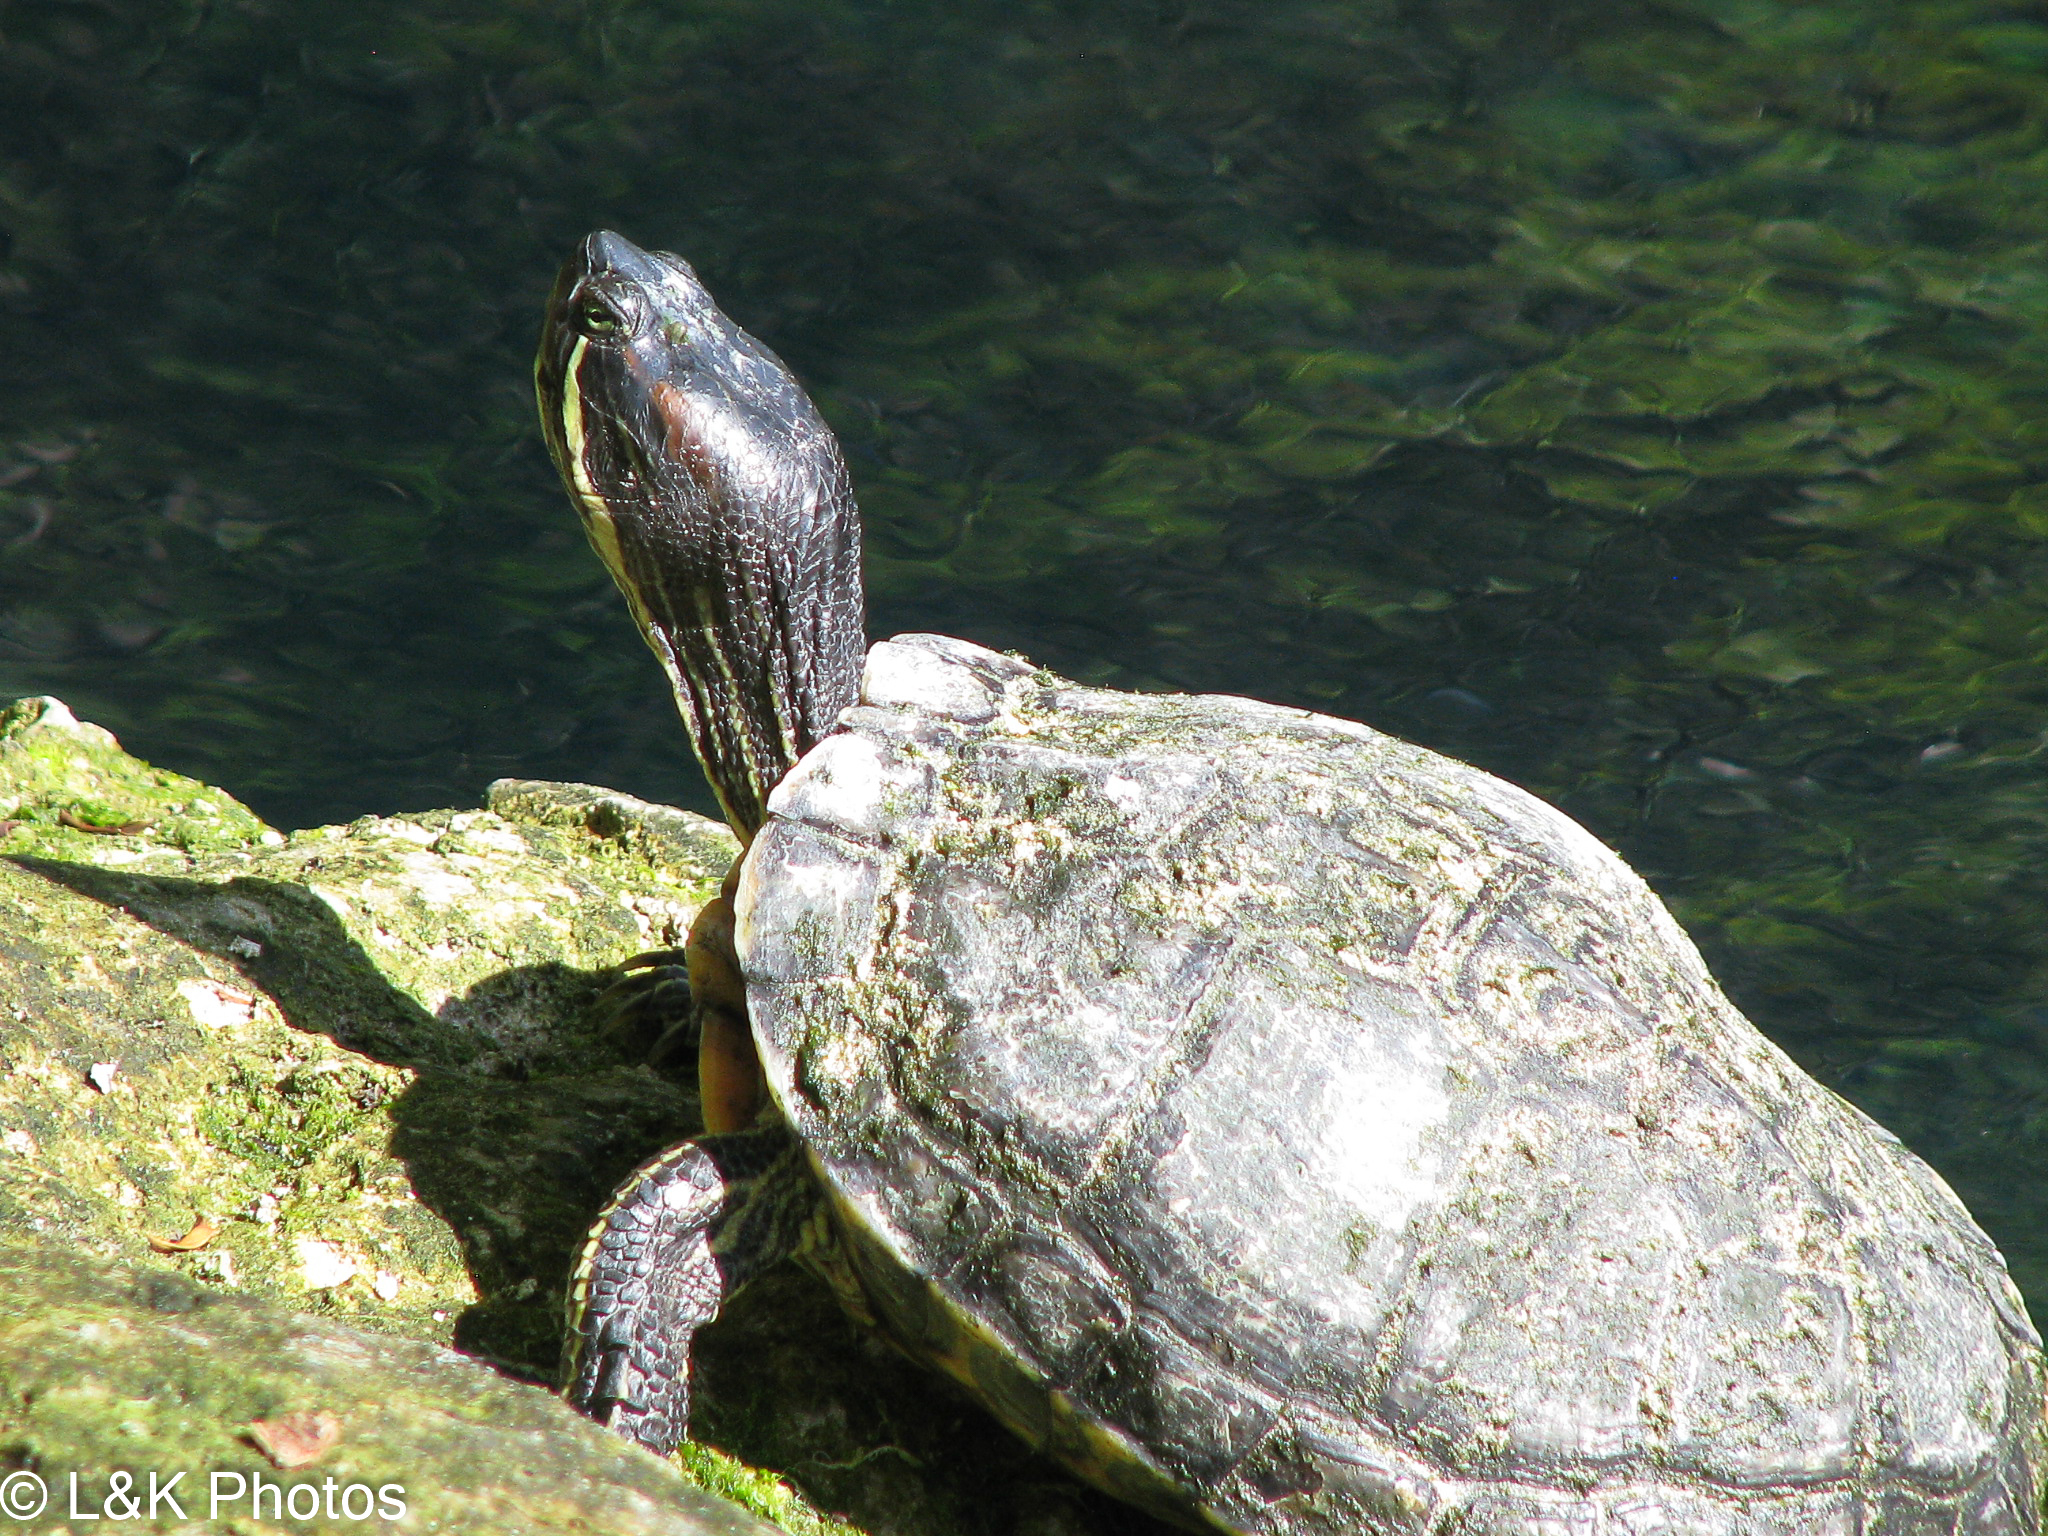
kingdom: Animalia
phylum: Chordata
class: Testudines
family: Emydidae
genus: Trachemys
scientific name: Trachemys scripta
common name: Slider
